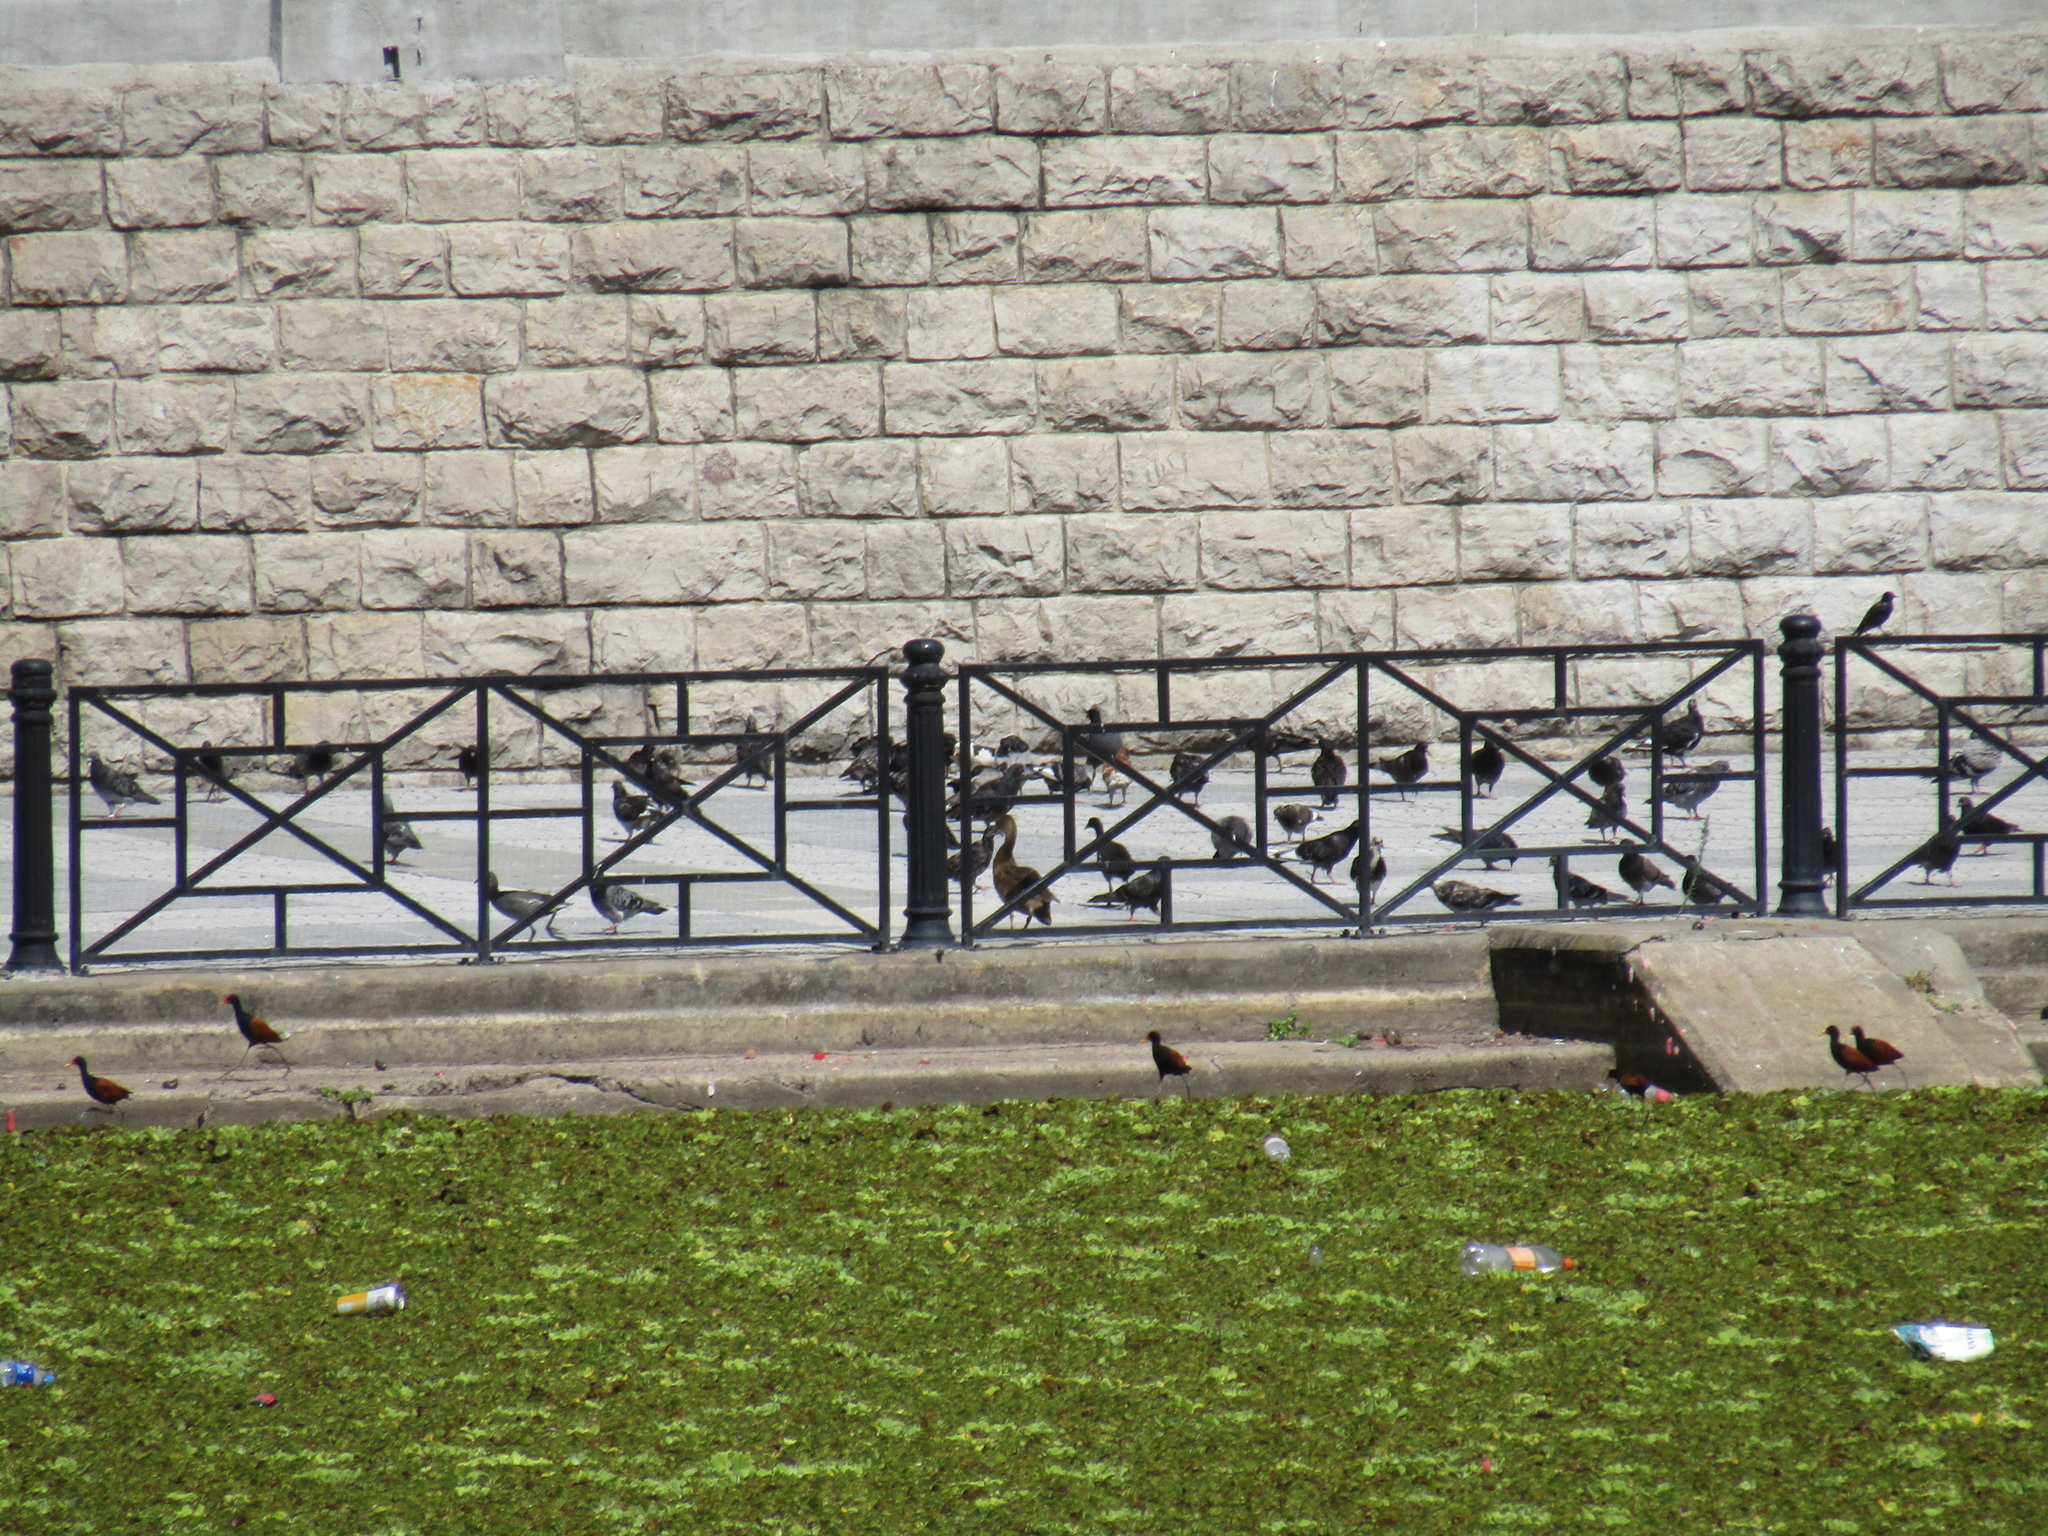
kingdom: Animalia
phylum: Chordata
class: Aves
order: Columbiformes
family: Columbidae
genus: Columba
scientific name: Columba livia
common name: Rock pigeon
